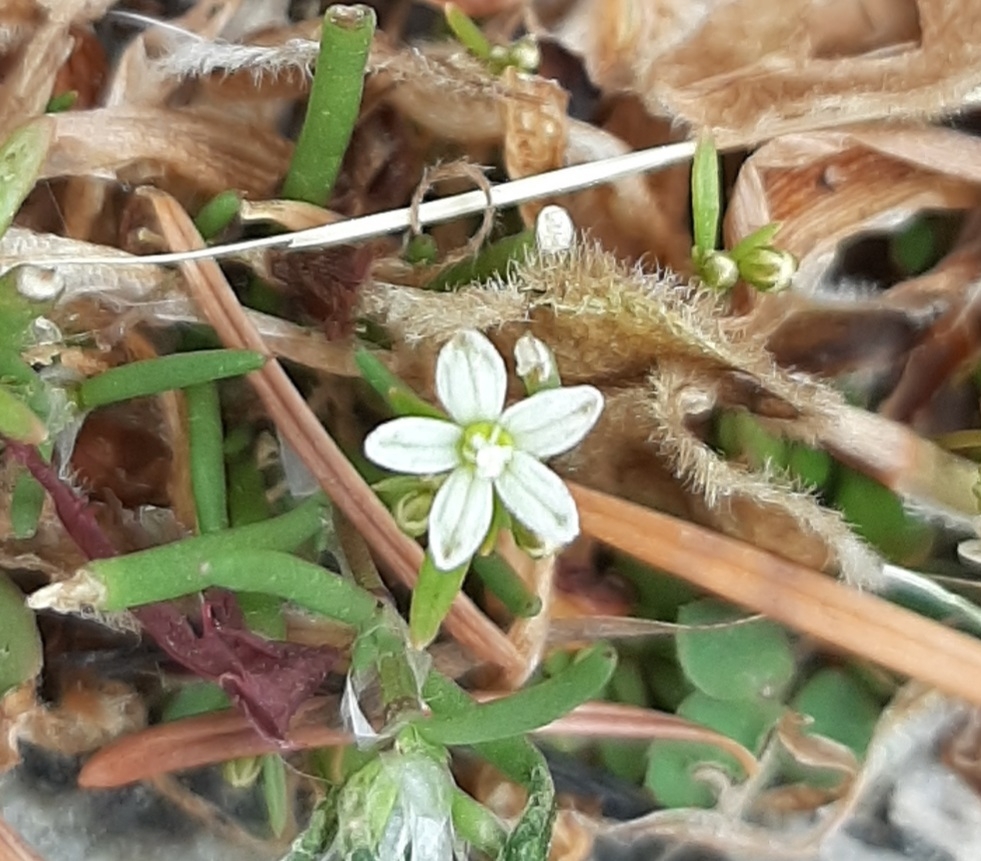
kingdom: Plantae
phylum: Tracheophyta
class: Magnoliopsida
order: Caryophyllales
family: Molluginaceae
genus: Mollugo
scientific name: Mollugo verticillata
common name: Green carpetweed
